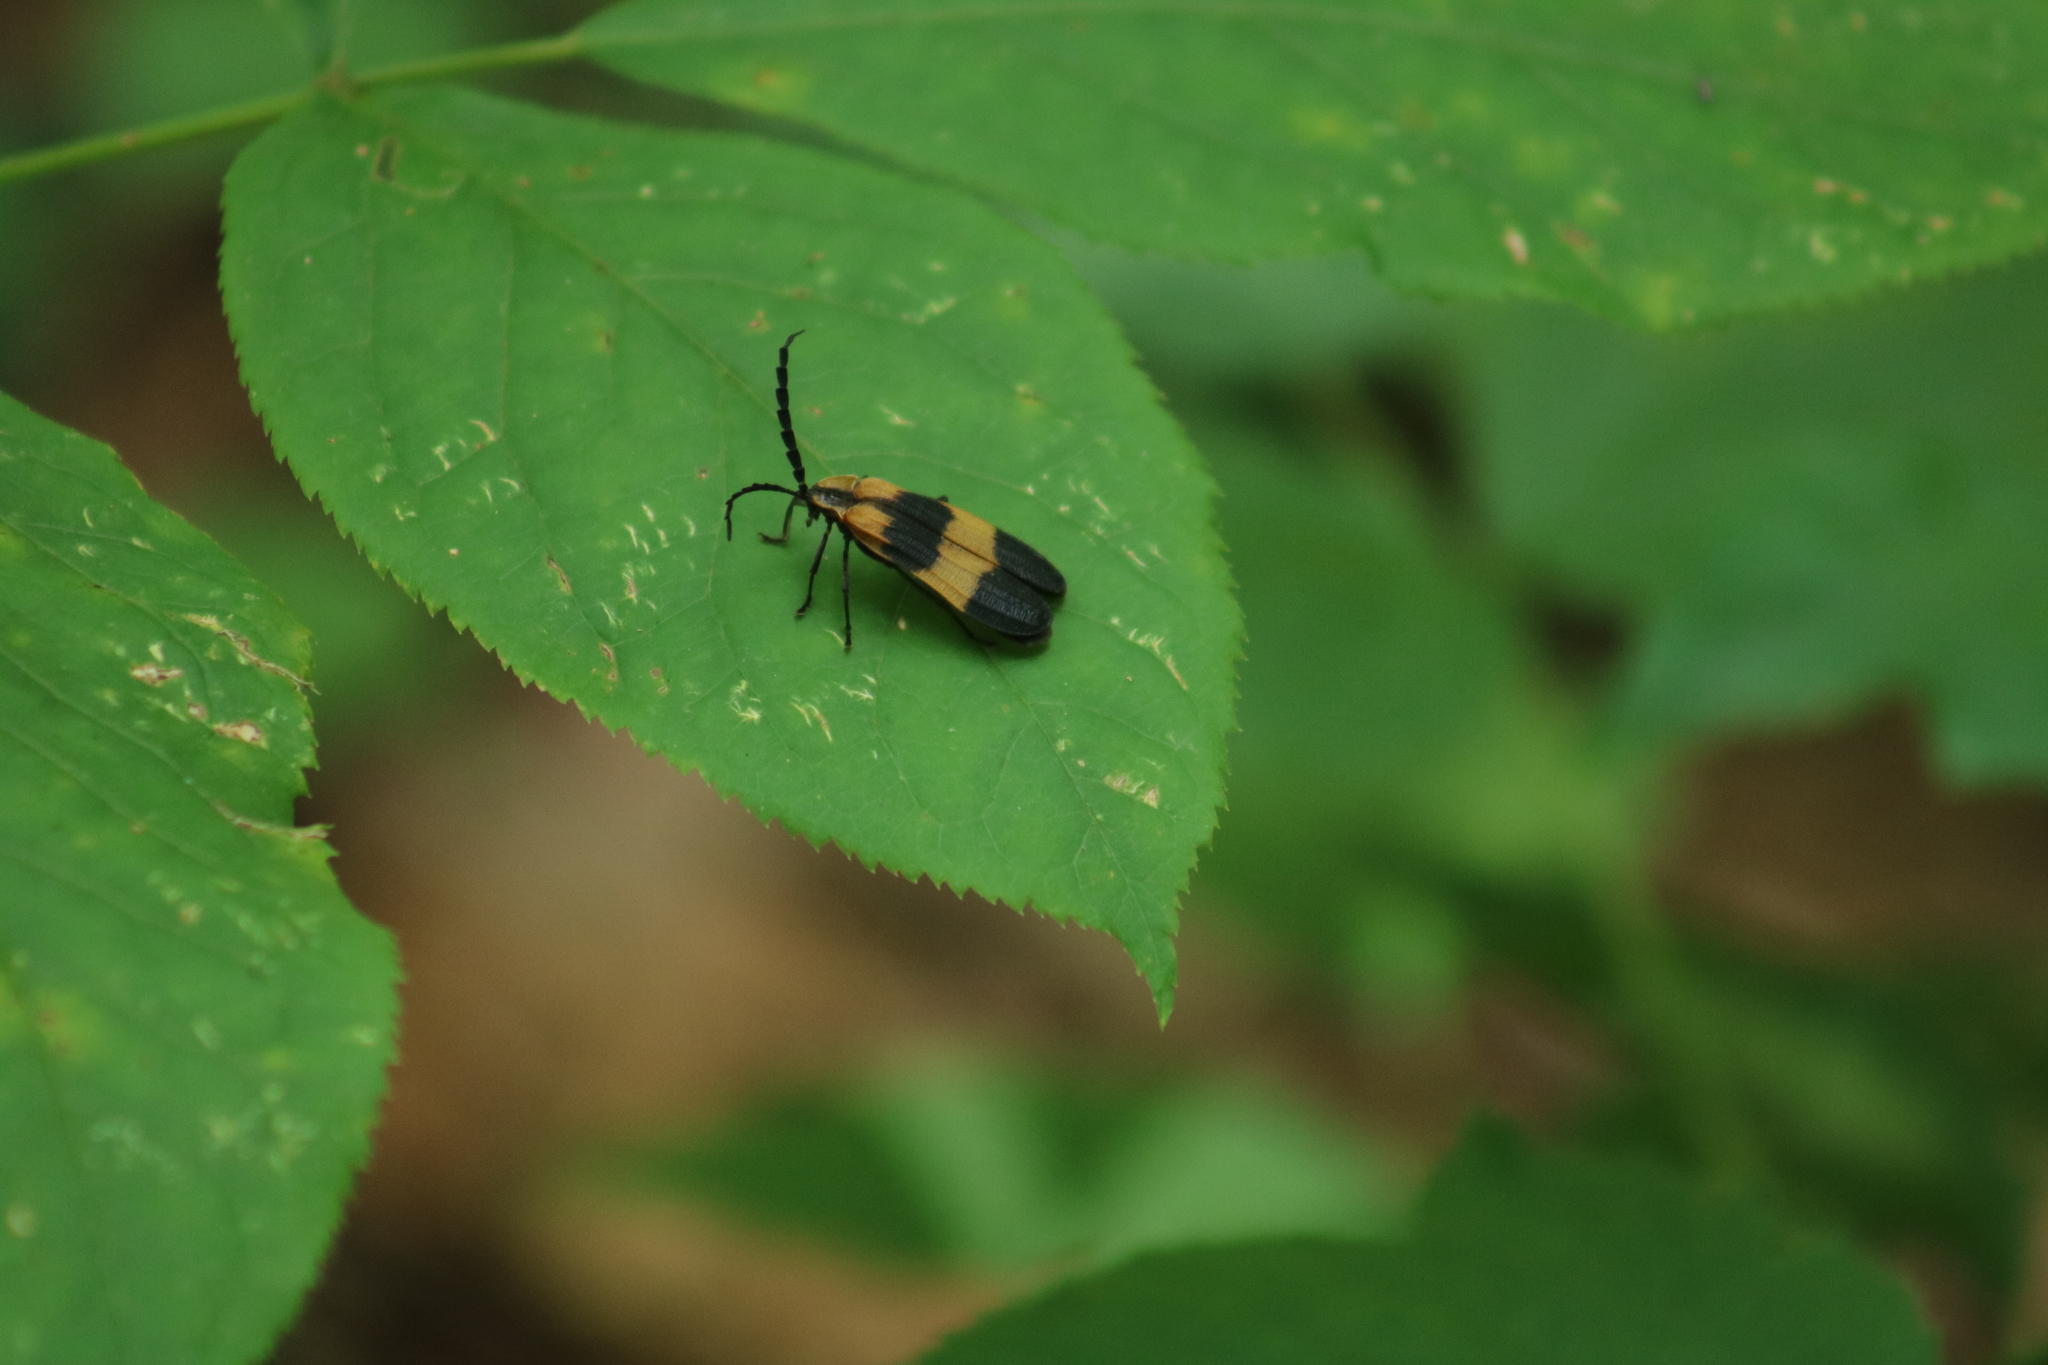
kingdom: Animalia
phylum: Arthropoda
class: Insecta
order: Coleoptera
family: Lycidae
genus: Calopteron
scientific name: Calopteron reticulatum
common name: Banded net-winged beetle
